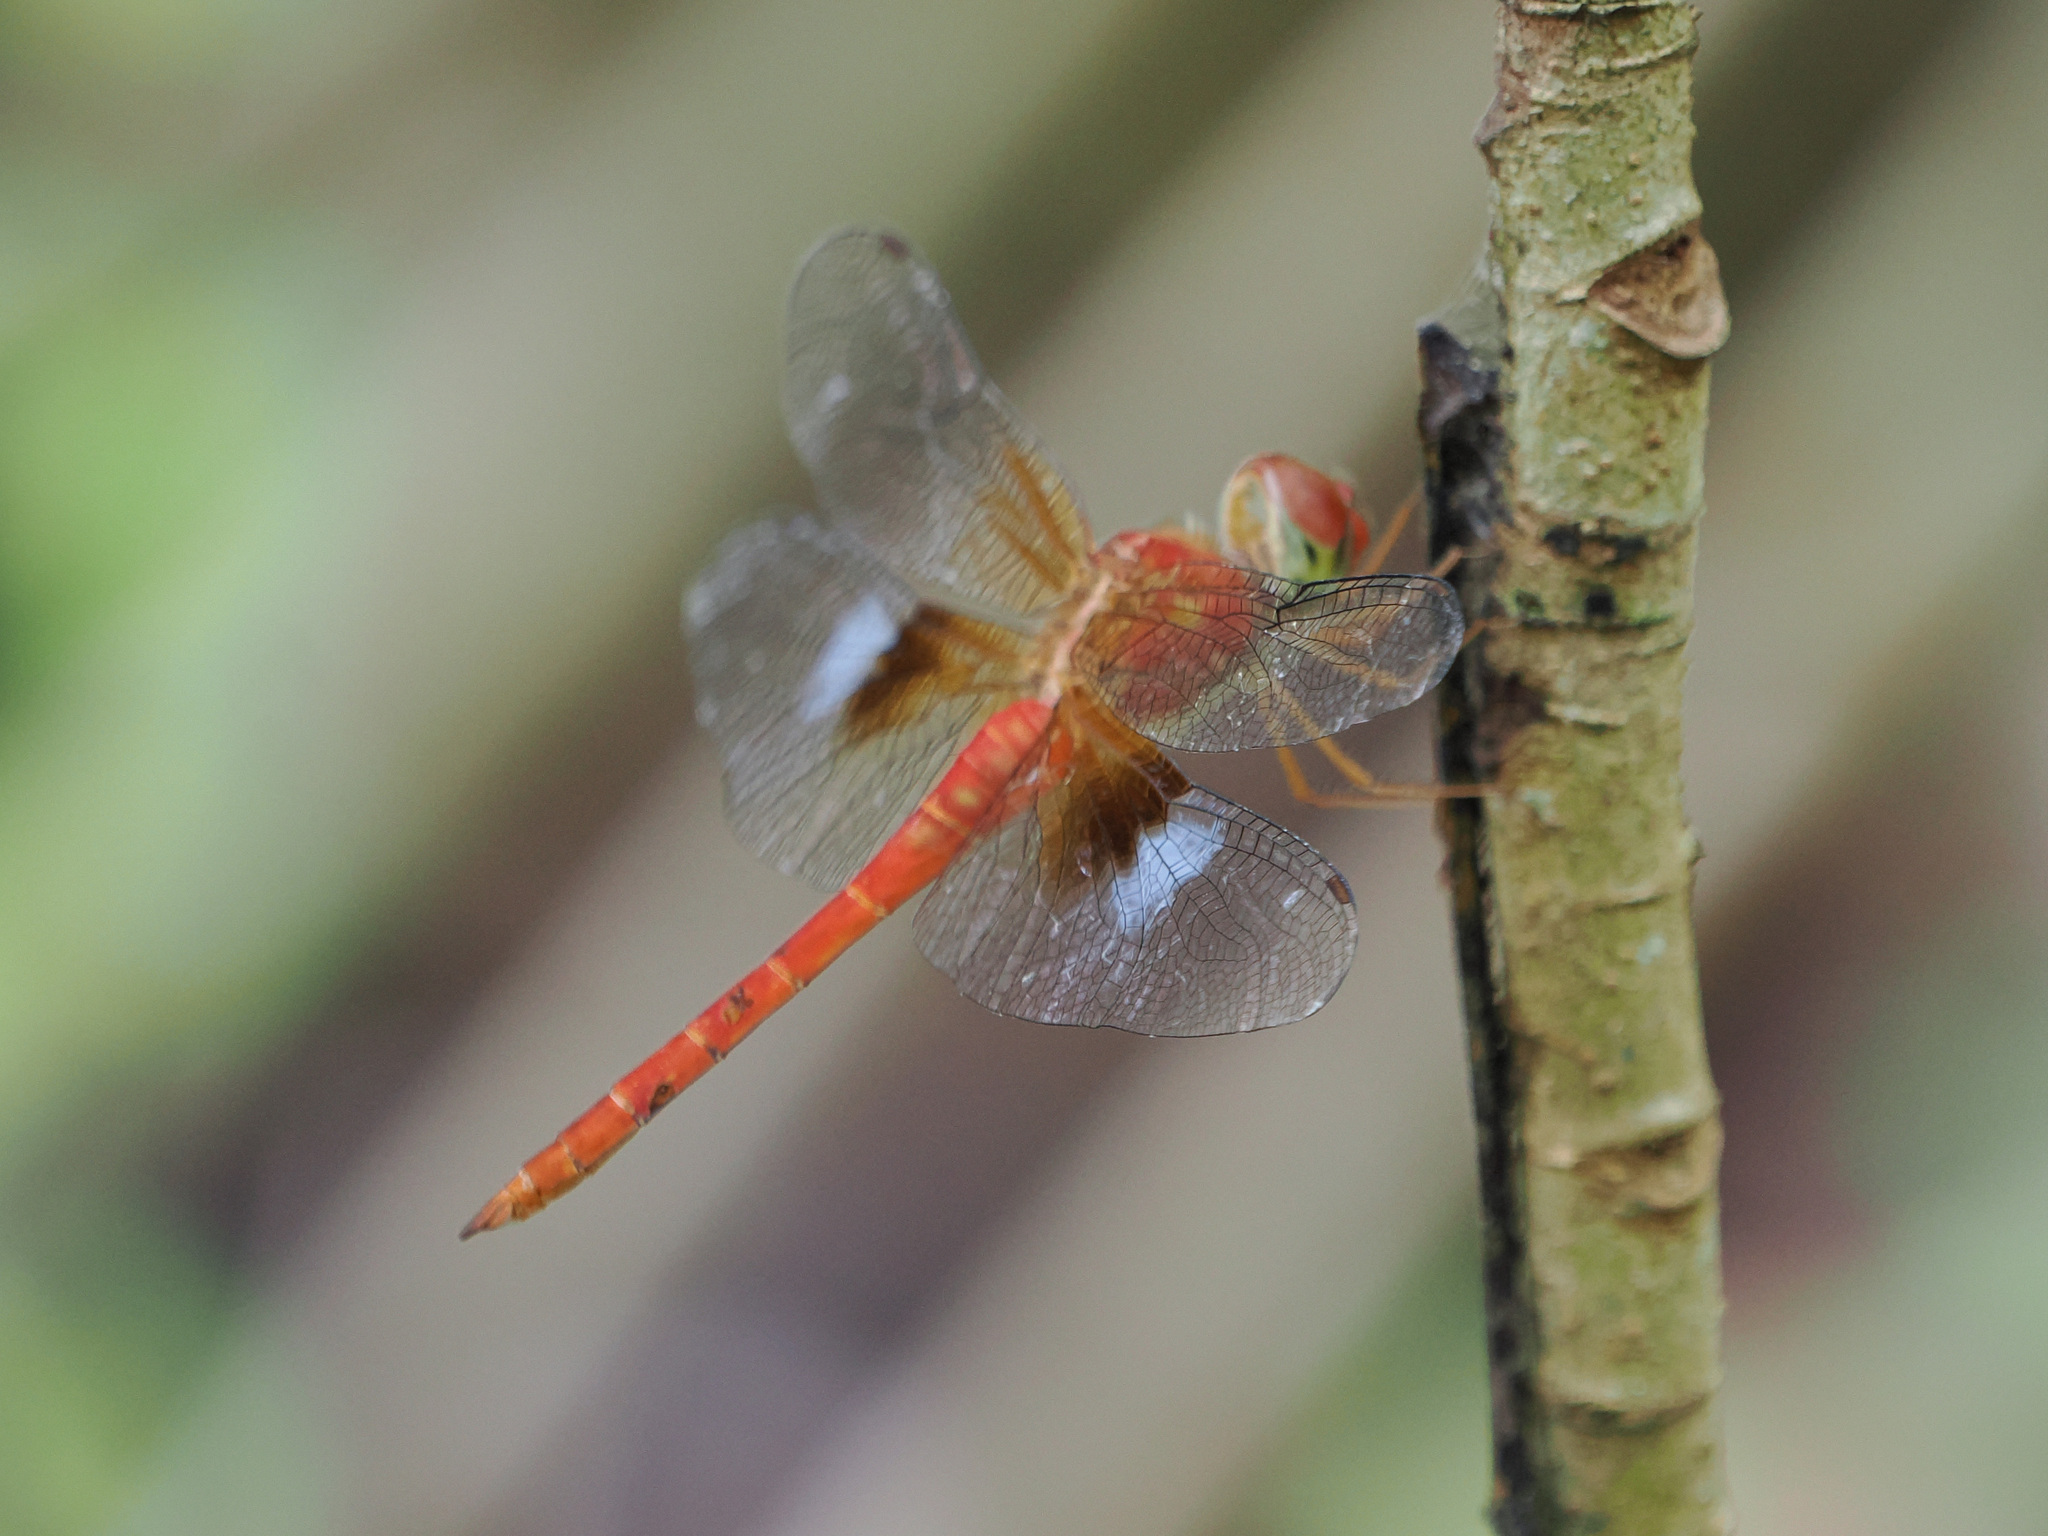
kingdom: Animalia
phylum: Arthropoda
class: Insecta
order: Odonata
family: Libellulidae
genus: Tholymis
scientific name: Tholymis tillarga
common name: Coral-tailed cloud wing
